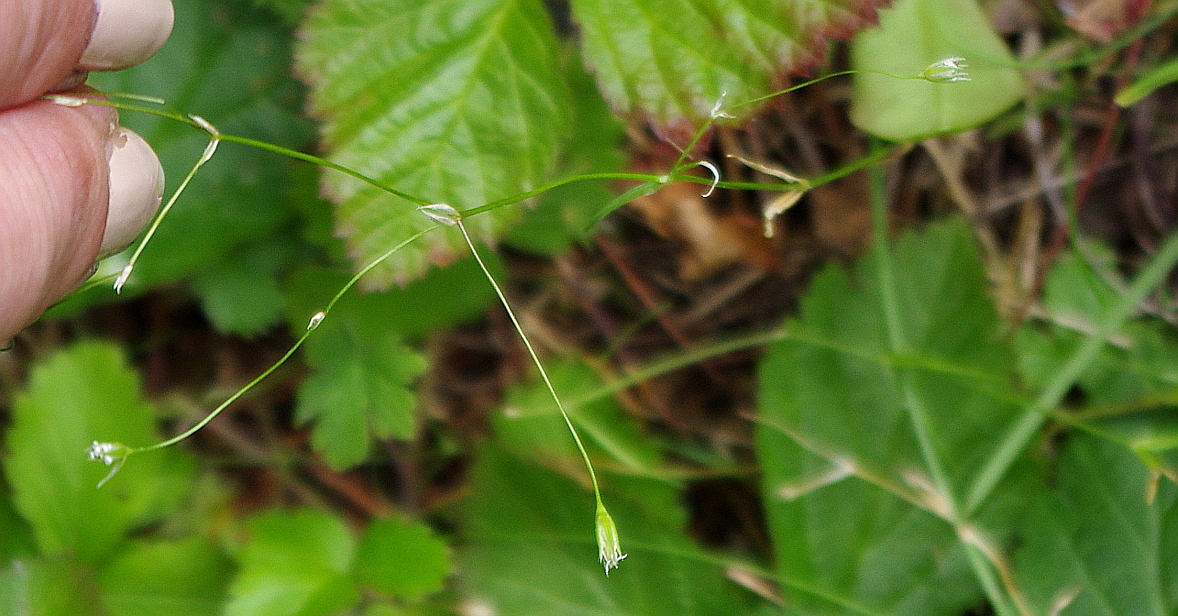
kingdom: Plantae
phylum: Tracheophyta
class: Magnoliopsida
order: Caryophyllales
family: Caryophyllaceae
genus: Stellaria
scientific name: Stellaria graminea
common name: Grass-like starwort
